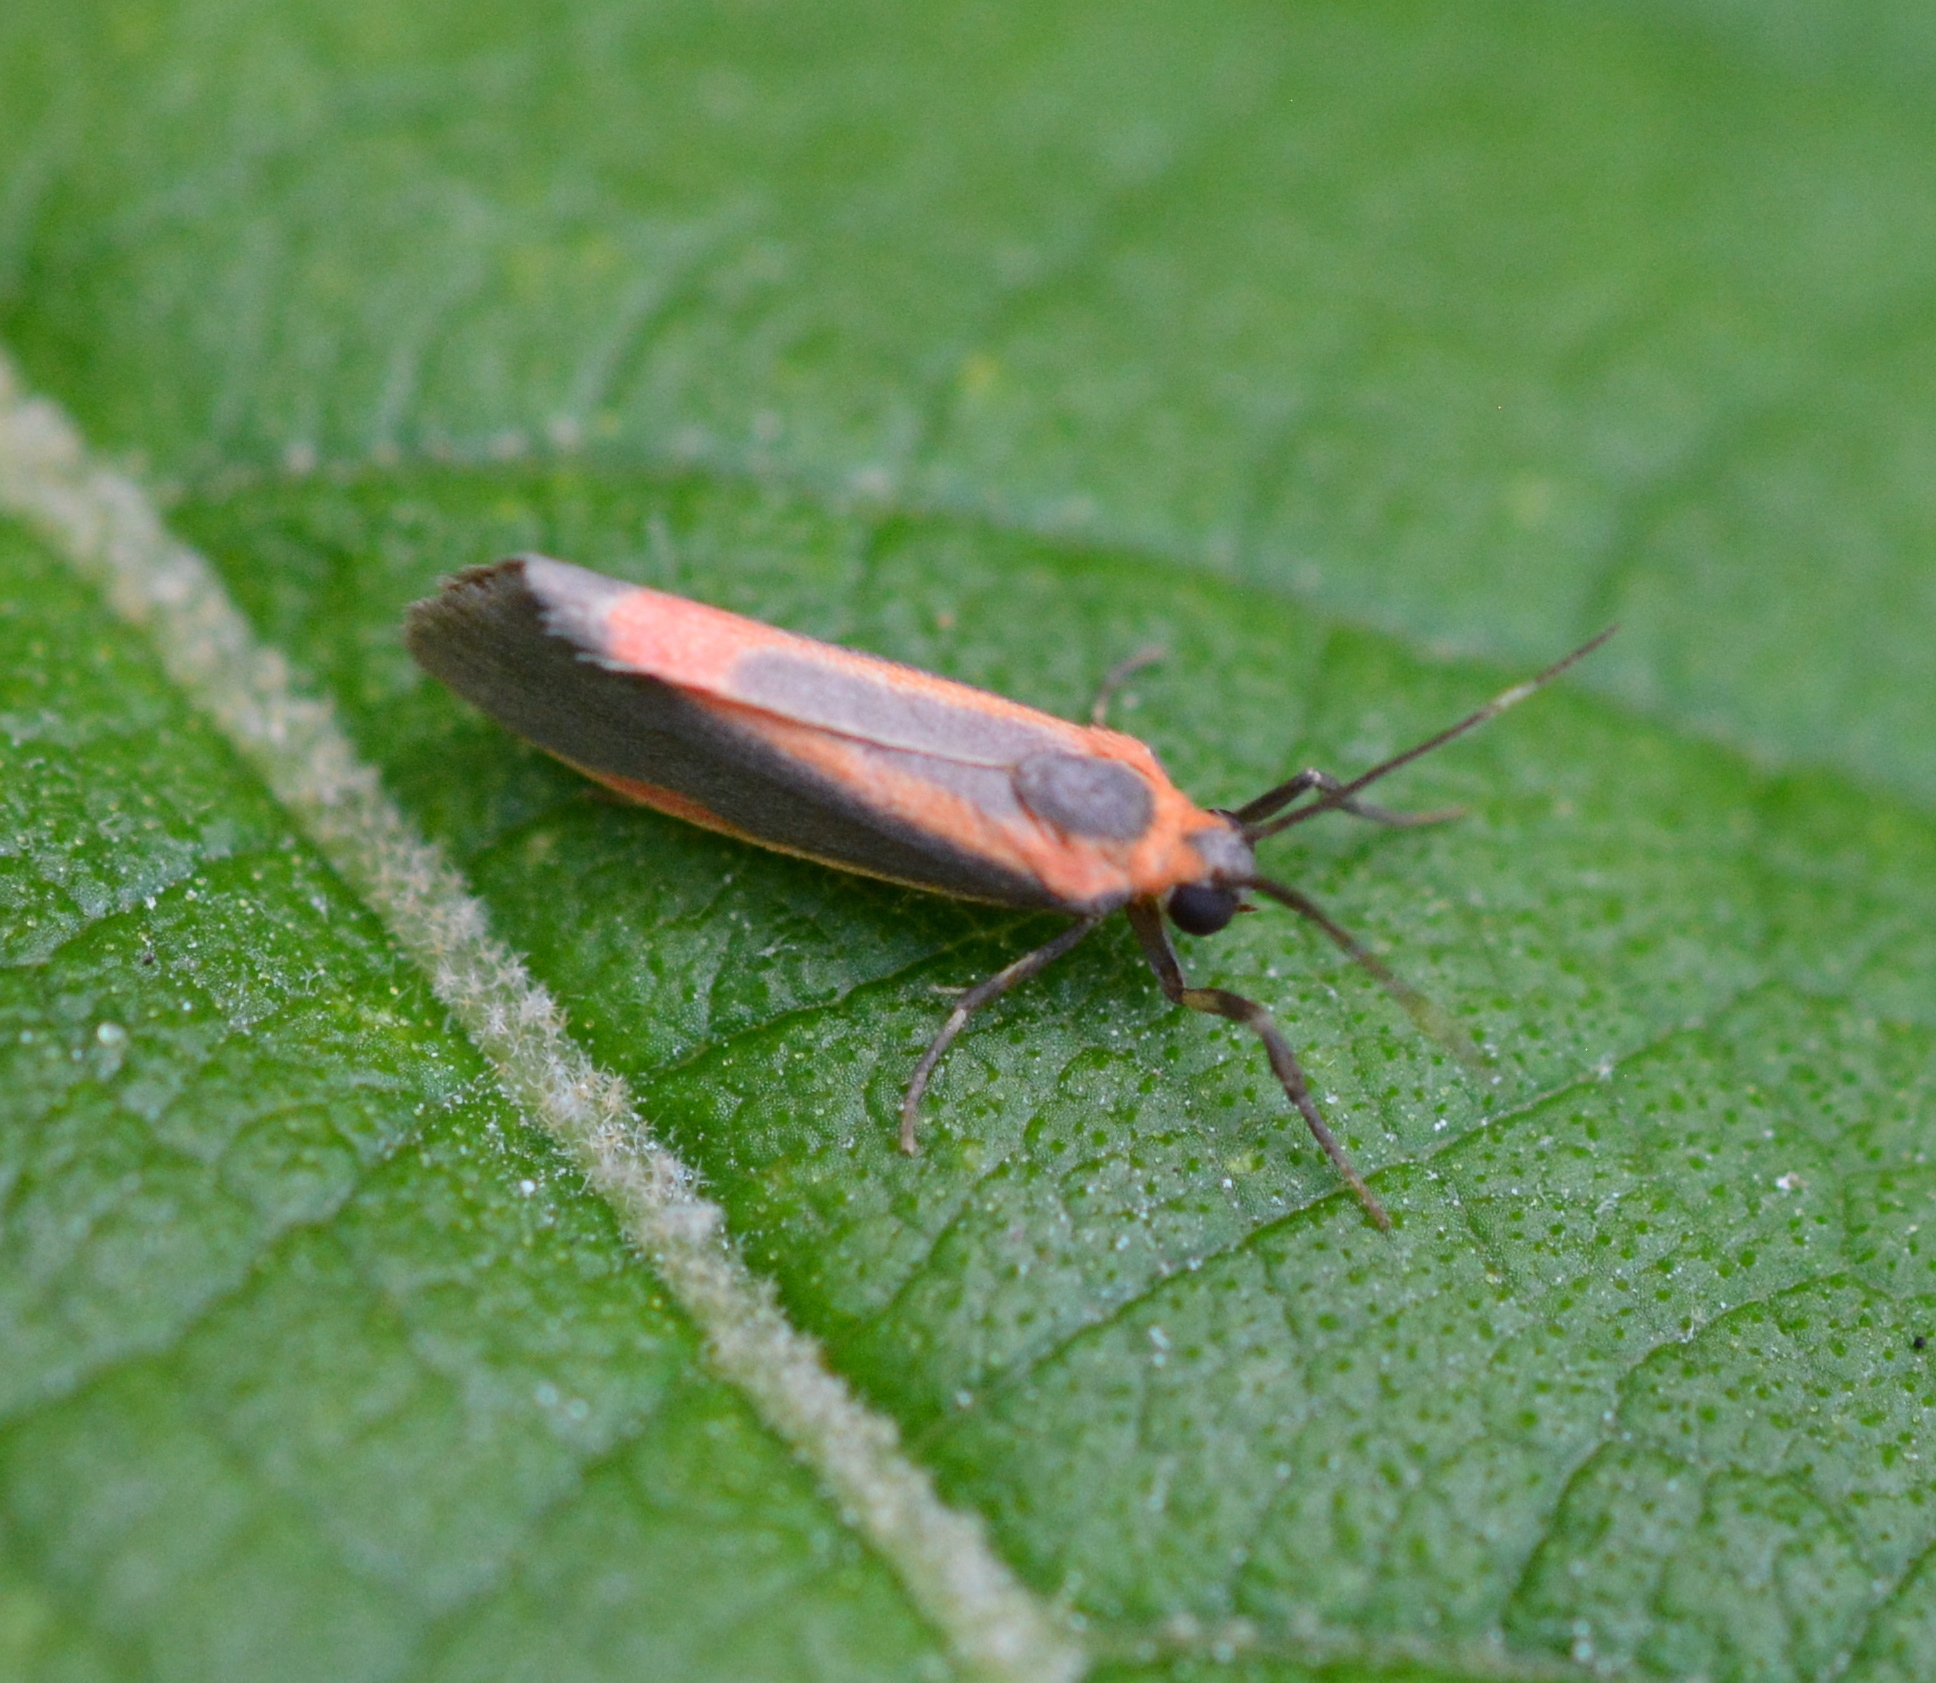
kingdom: Animalia
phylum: Arthropoda
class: Insecta
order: Lepidoptera
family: Erebidae
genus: Cisthene
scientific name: Cisthene subjecta
